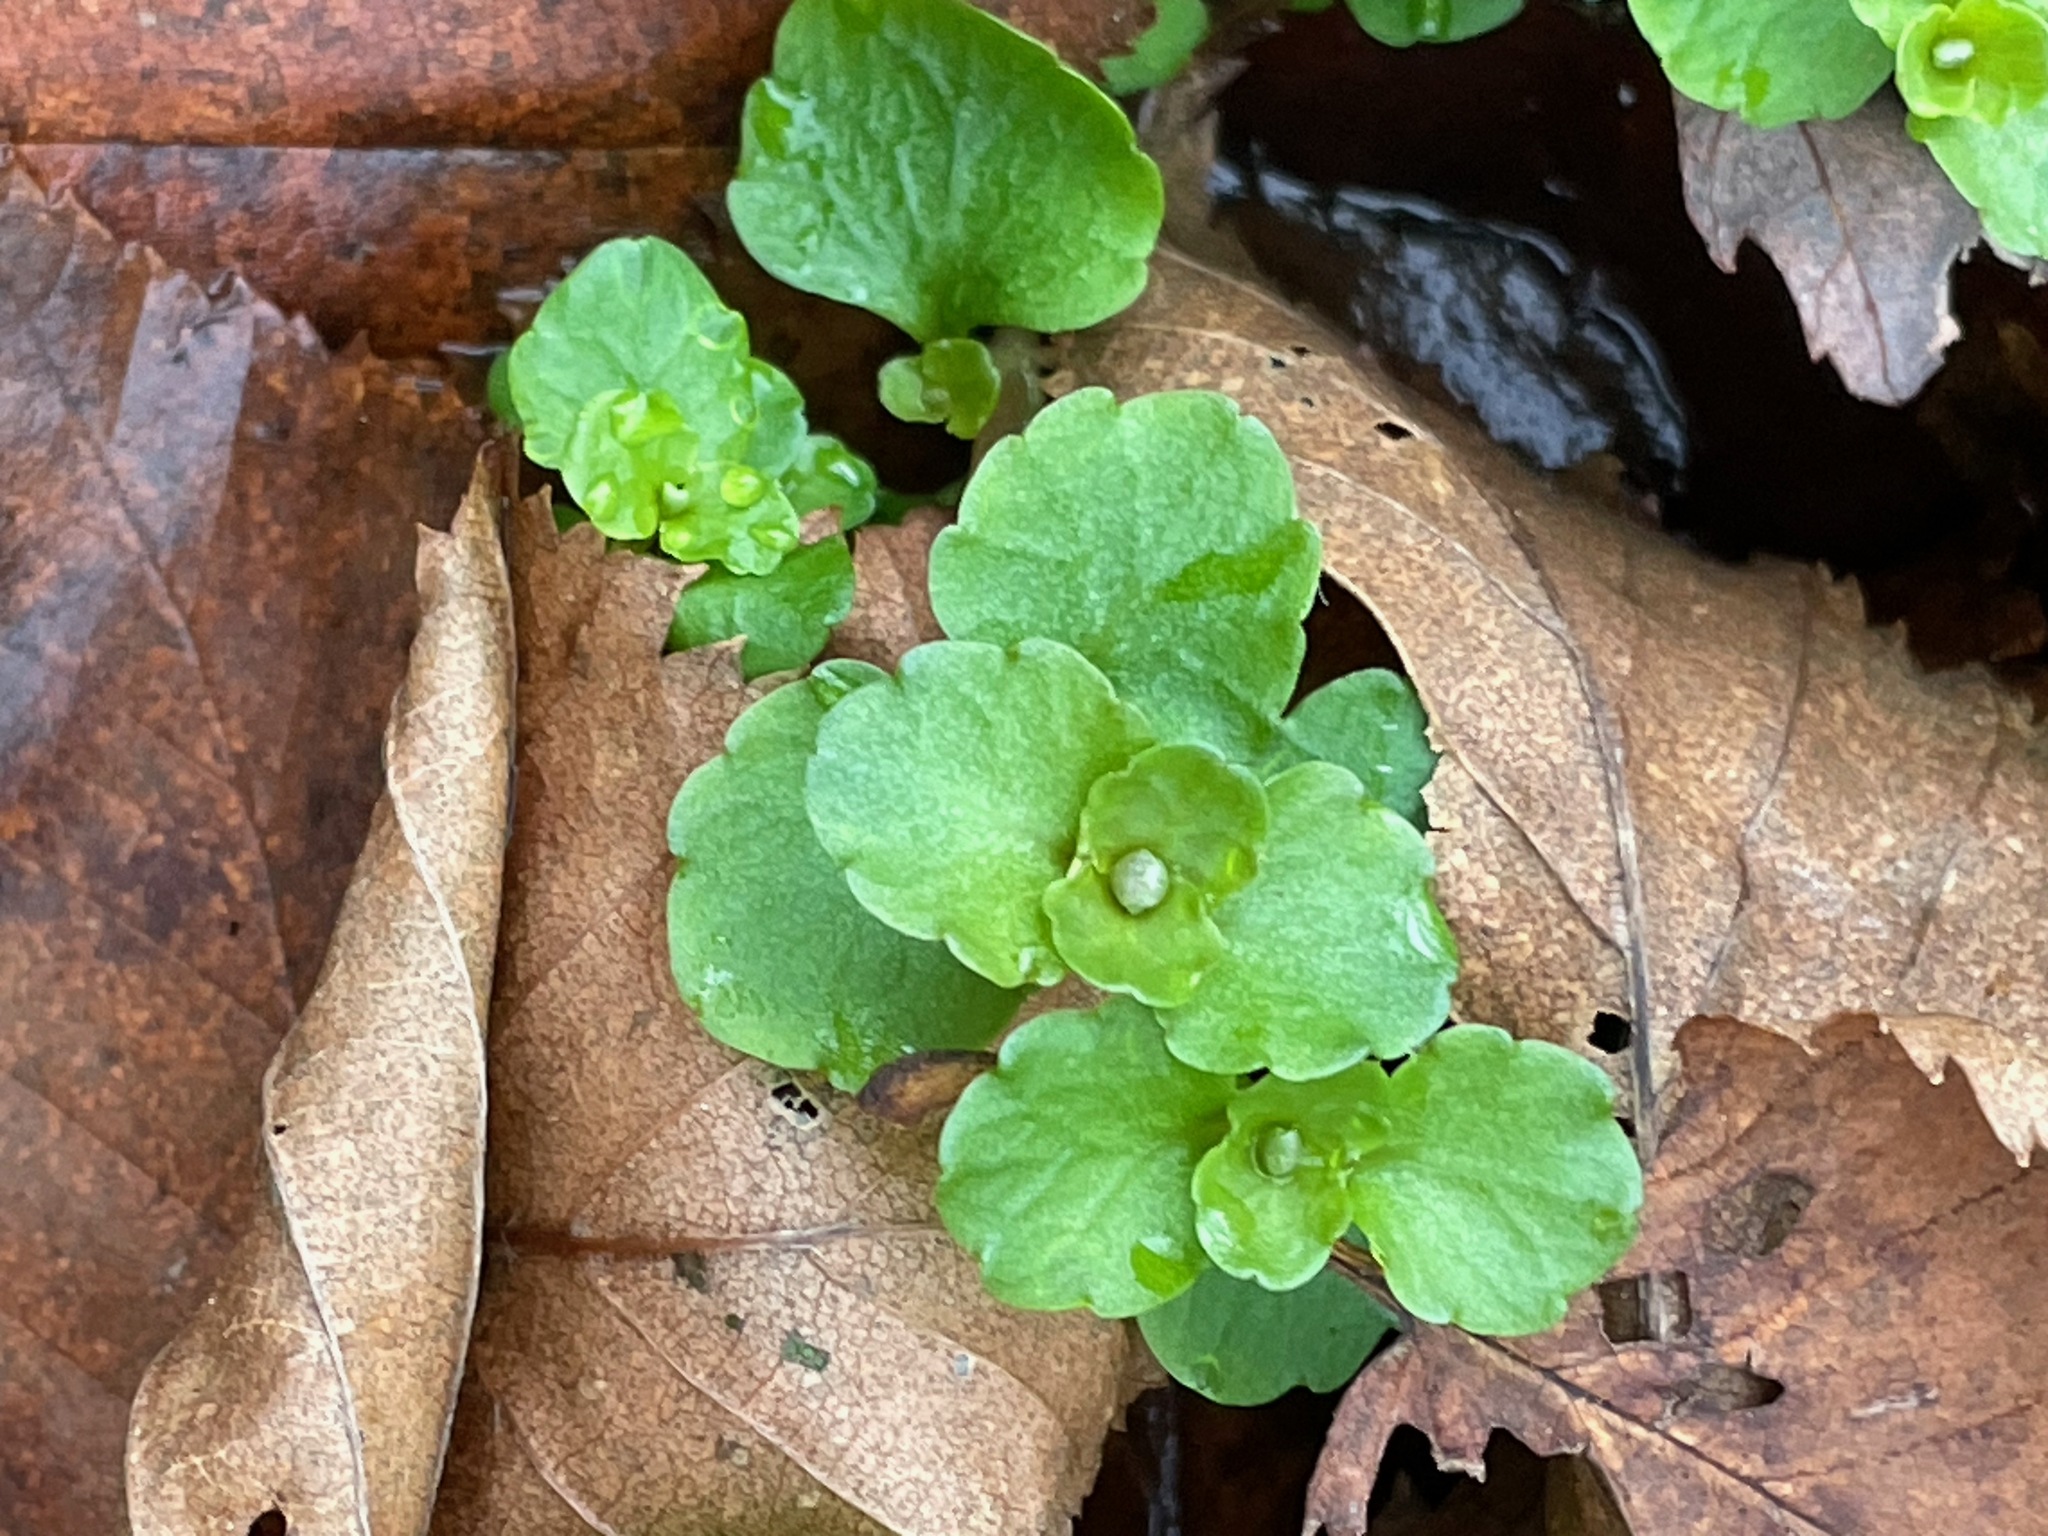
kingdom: Plantae
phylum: Tracheophyta
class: Magnoliopsida
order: Saxifragales
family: Saxifragaceae
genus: Chrysosplenium
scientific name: Chrysosplenium americanum
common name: American golden-saxifrage
